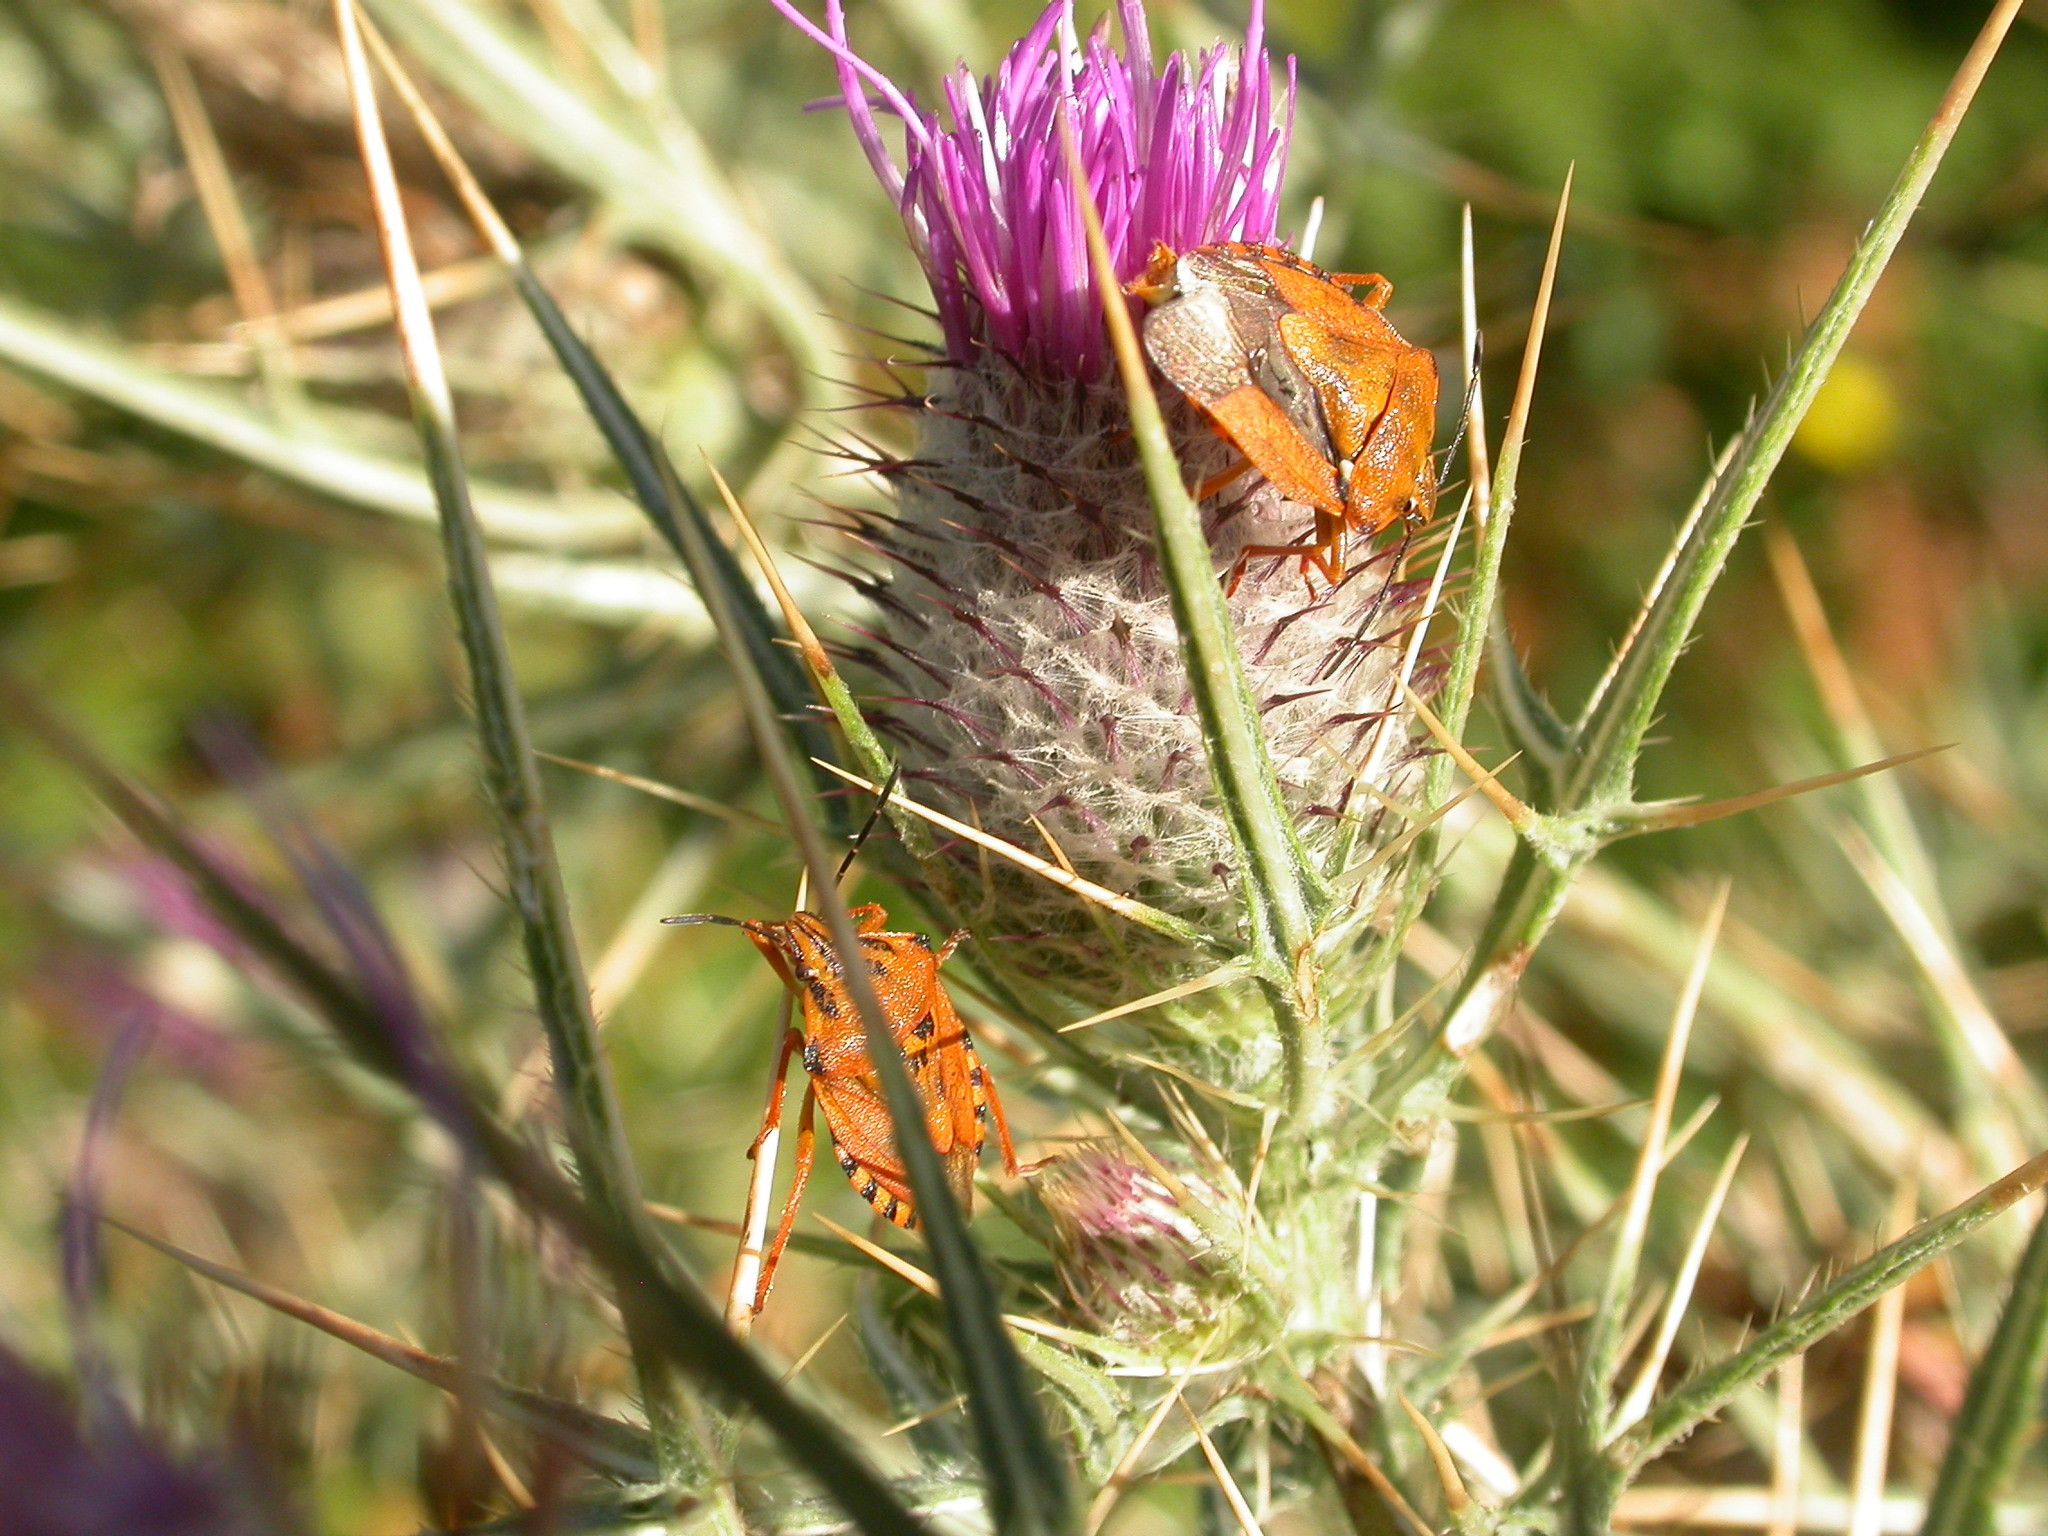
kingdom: Animalia
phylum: Arthropoda
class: Insecta
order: Hemiptera
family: Pentatomidae
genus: Carpocoris
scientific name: Carpocoris mediterraneus
